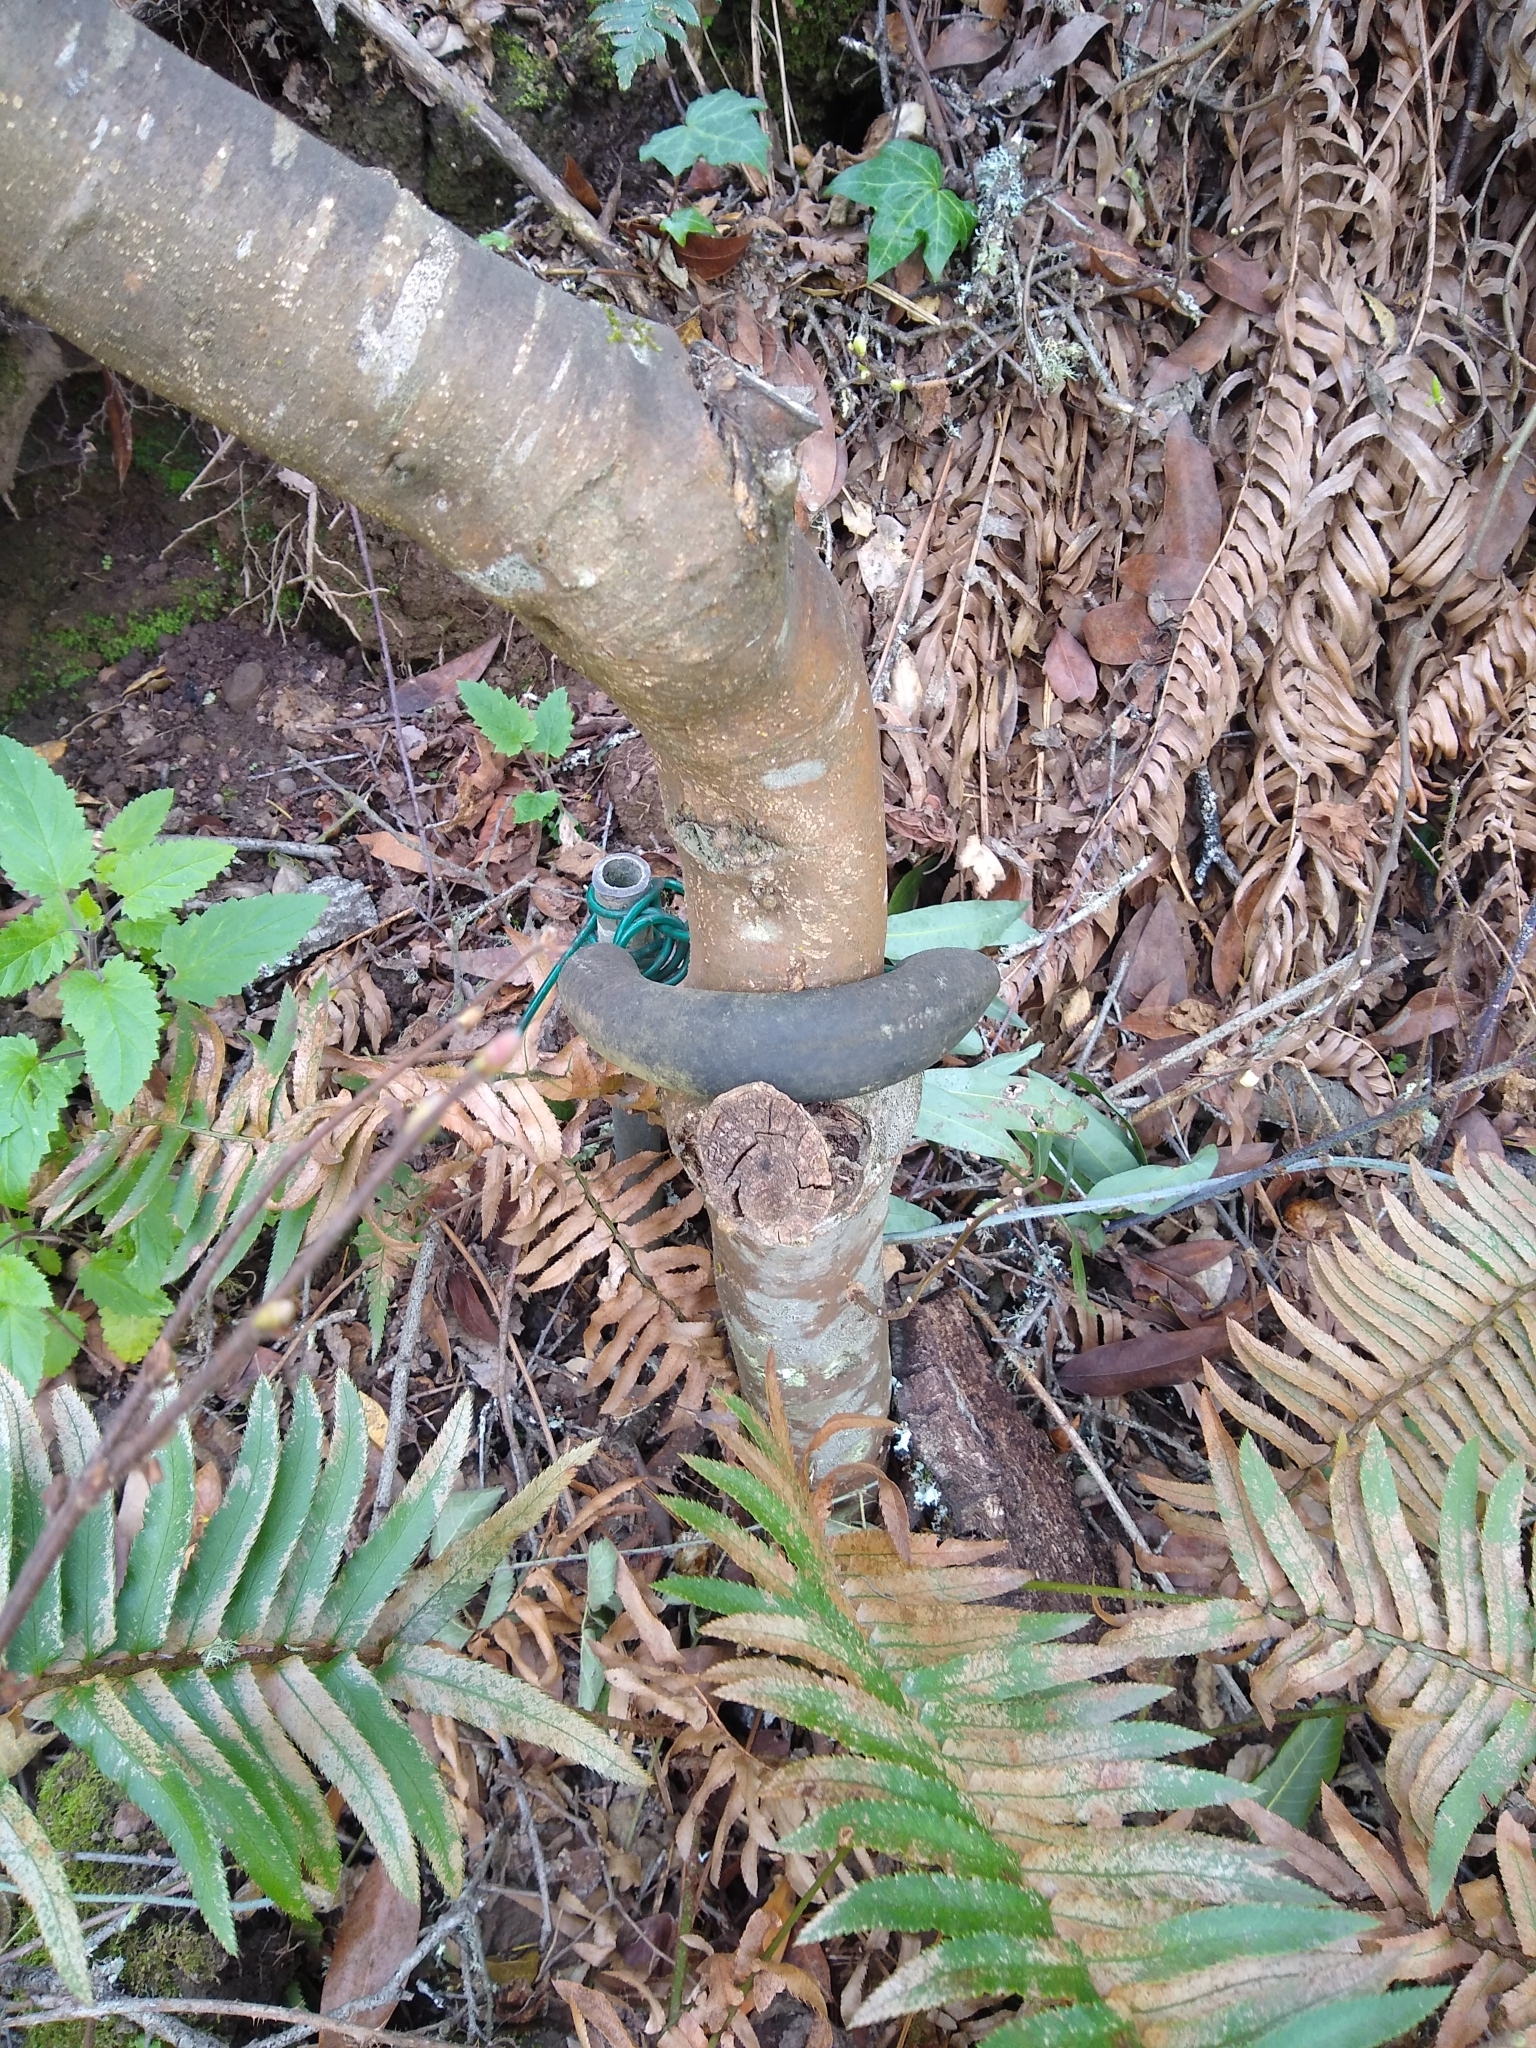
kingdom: Plantae
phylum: Tracheophyta
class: Magnoliopsida
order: Malvales
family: Thymelaeaceae
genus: Dirca
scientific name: Dirca occidentalis
